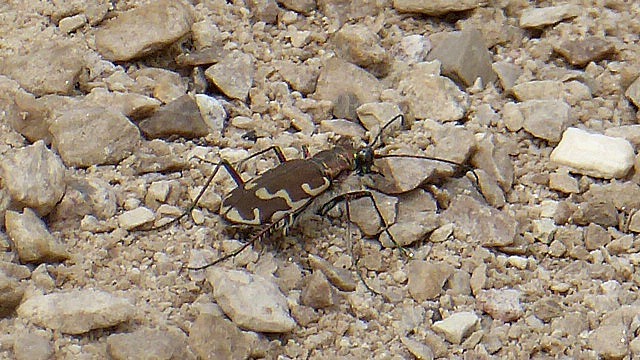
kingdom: Animalia
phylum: Arthropoda
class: Insecta
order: Coleoptera
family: Carabidae
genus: Cicindela
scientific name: Cicindela repanda
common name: Bronzed tiger beetle
